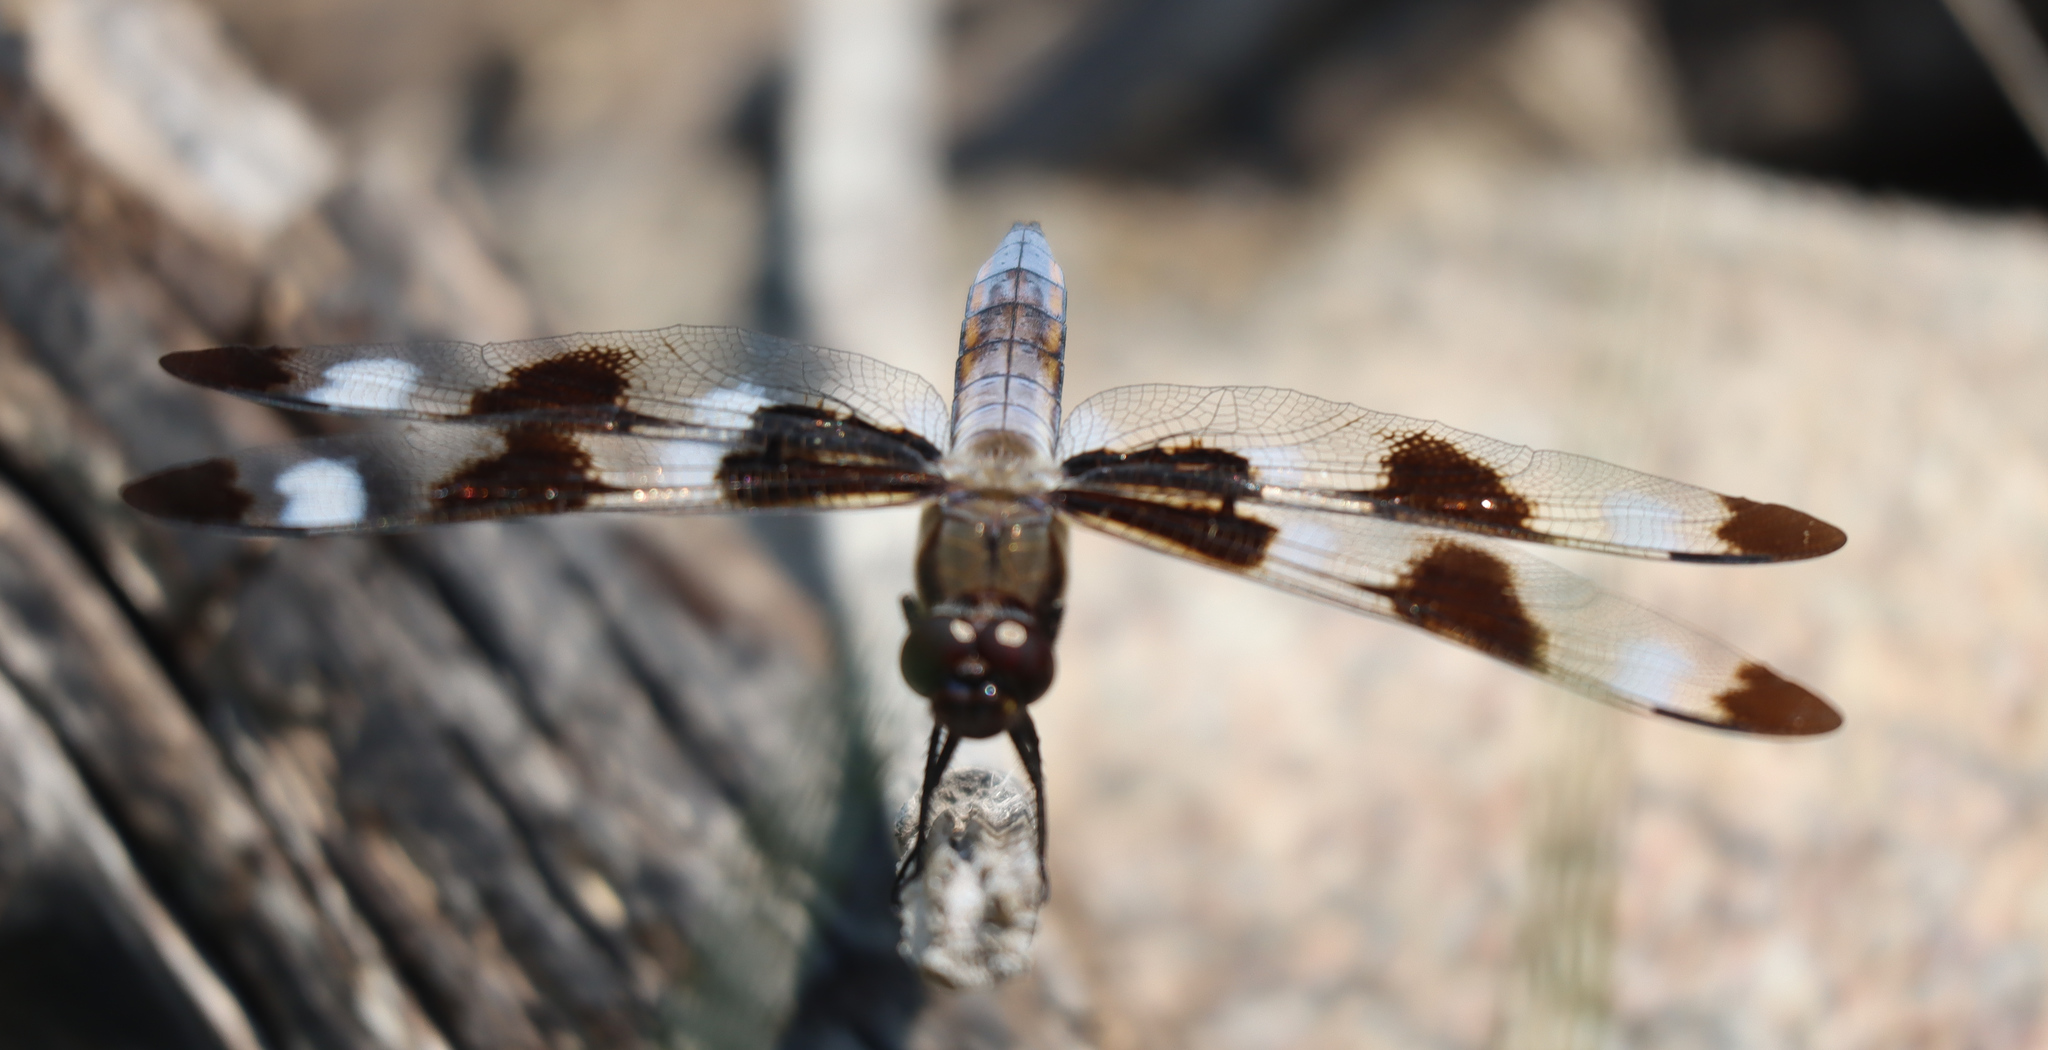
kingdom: Animalia
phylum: Arthropoda
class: Insecta
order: Odonata
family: Libellulidae
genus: Libellula
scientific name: Libellula pulchella
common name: Twelve-spotted skimmer
